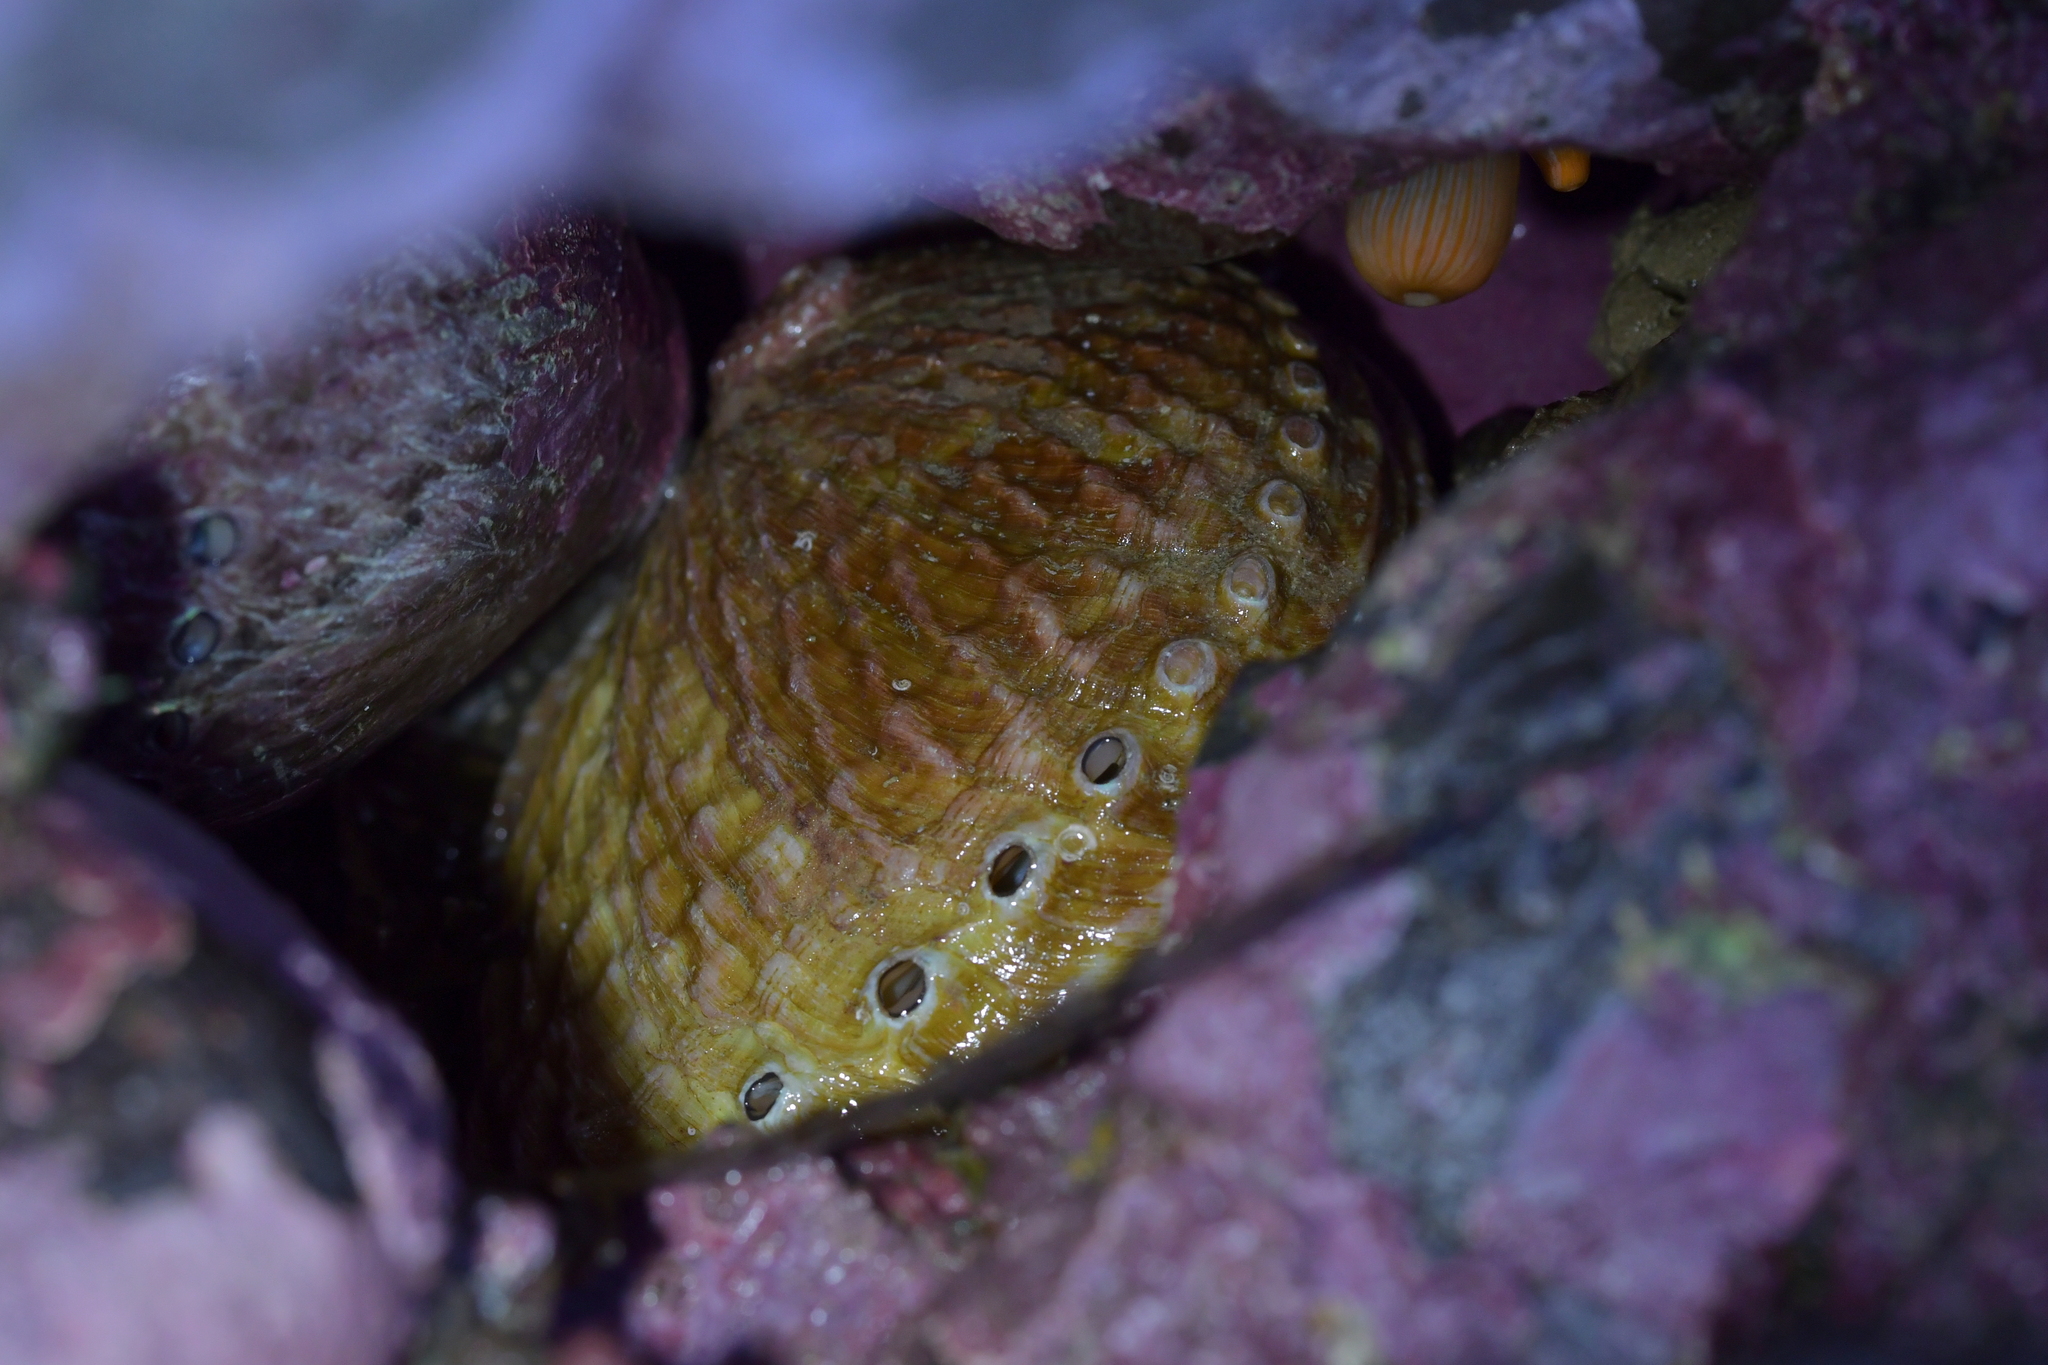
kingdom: Animalia
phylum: Mollusca
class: Gastropoda
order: Lepetellida
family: Haliotidae
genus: Haliotis
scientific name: Haliotis australis
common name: Silver abalone
